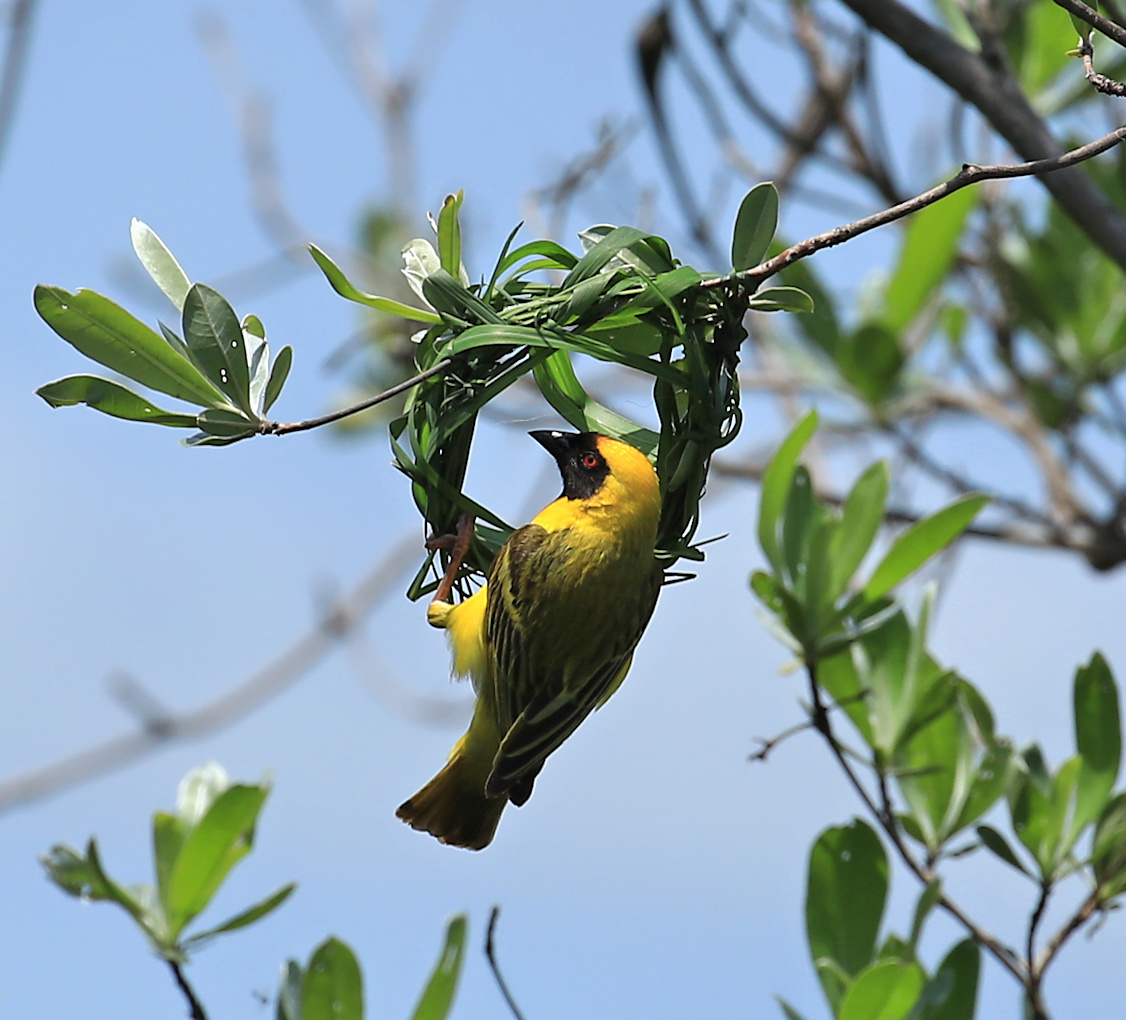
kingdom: Animalia
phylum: Chordata
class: Aves
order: Passeriformes
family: Ploceidae
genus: Ploceus
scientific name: Ploceus velatus
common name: Southern masked weaver
